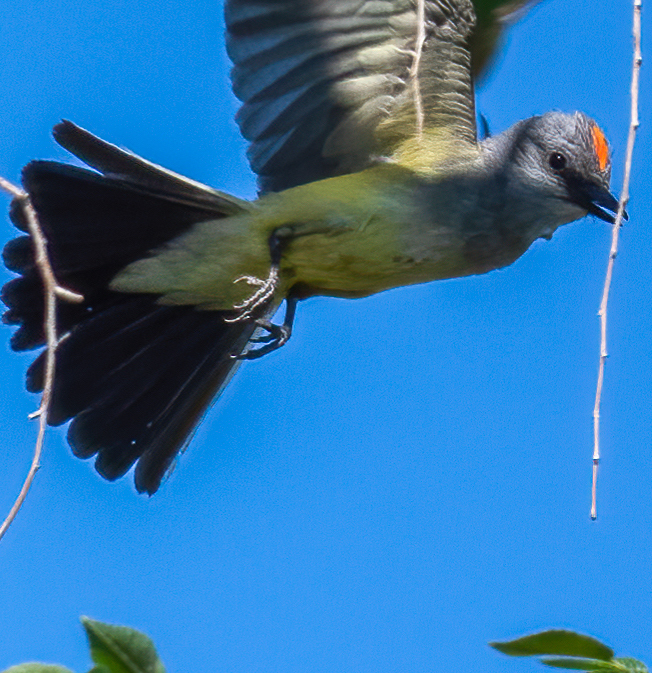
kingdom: Animalia
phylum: Chordata
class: Aves
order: Passeriformes
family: Tyrannidae
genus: Tyrannus
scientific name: Tyrannus verticalis
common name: Western kingbird
